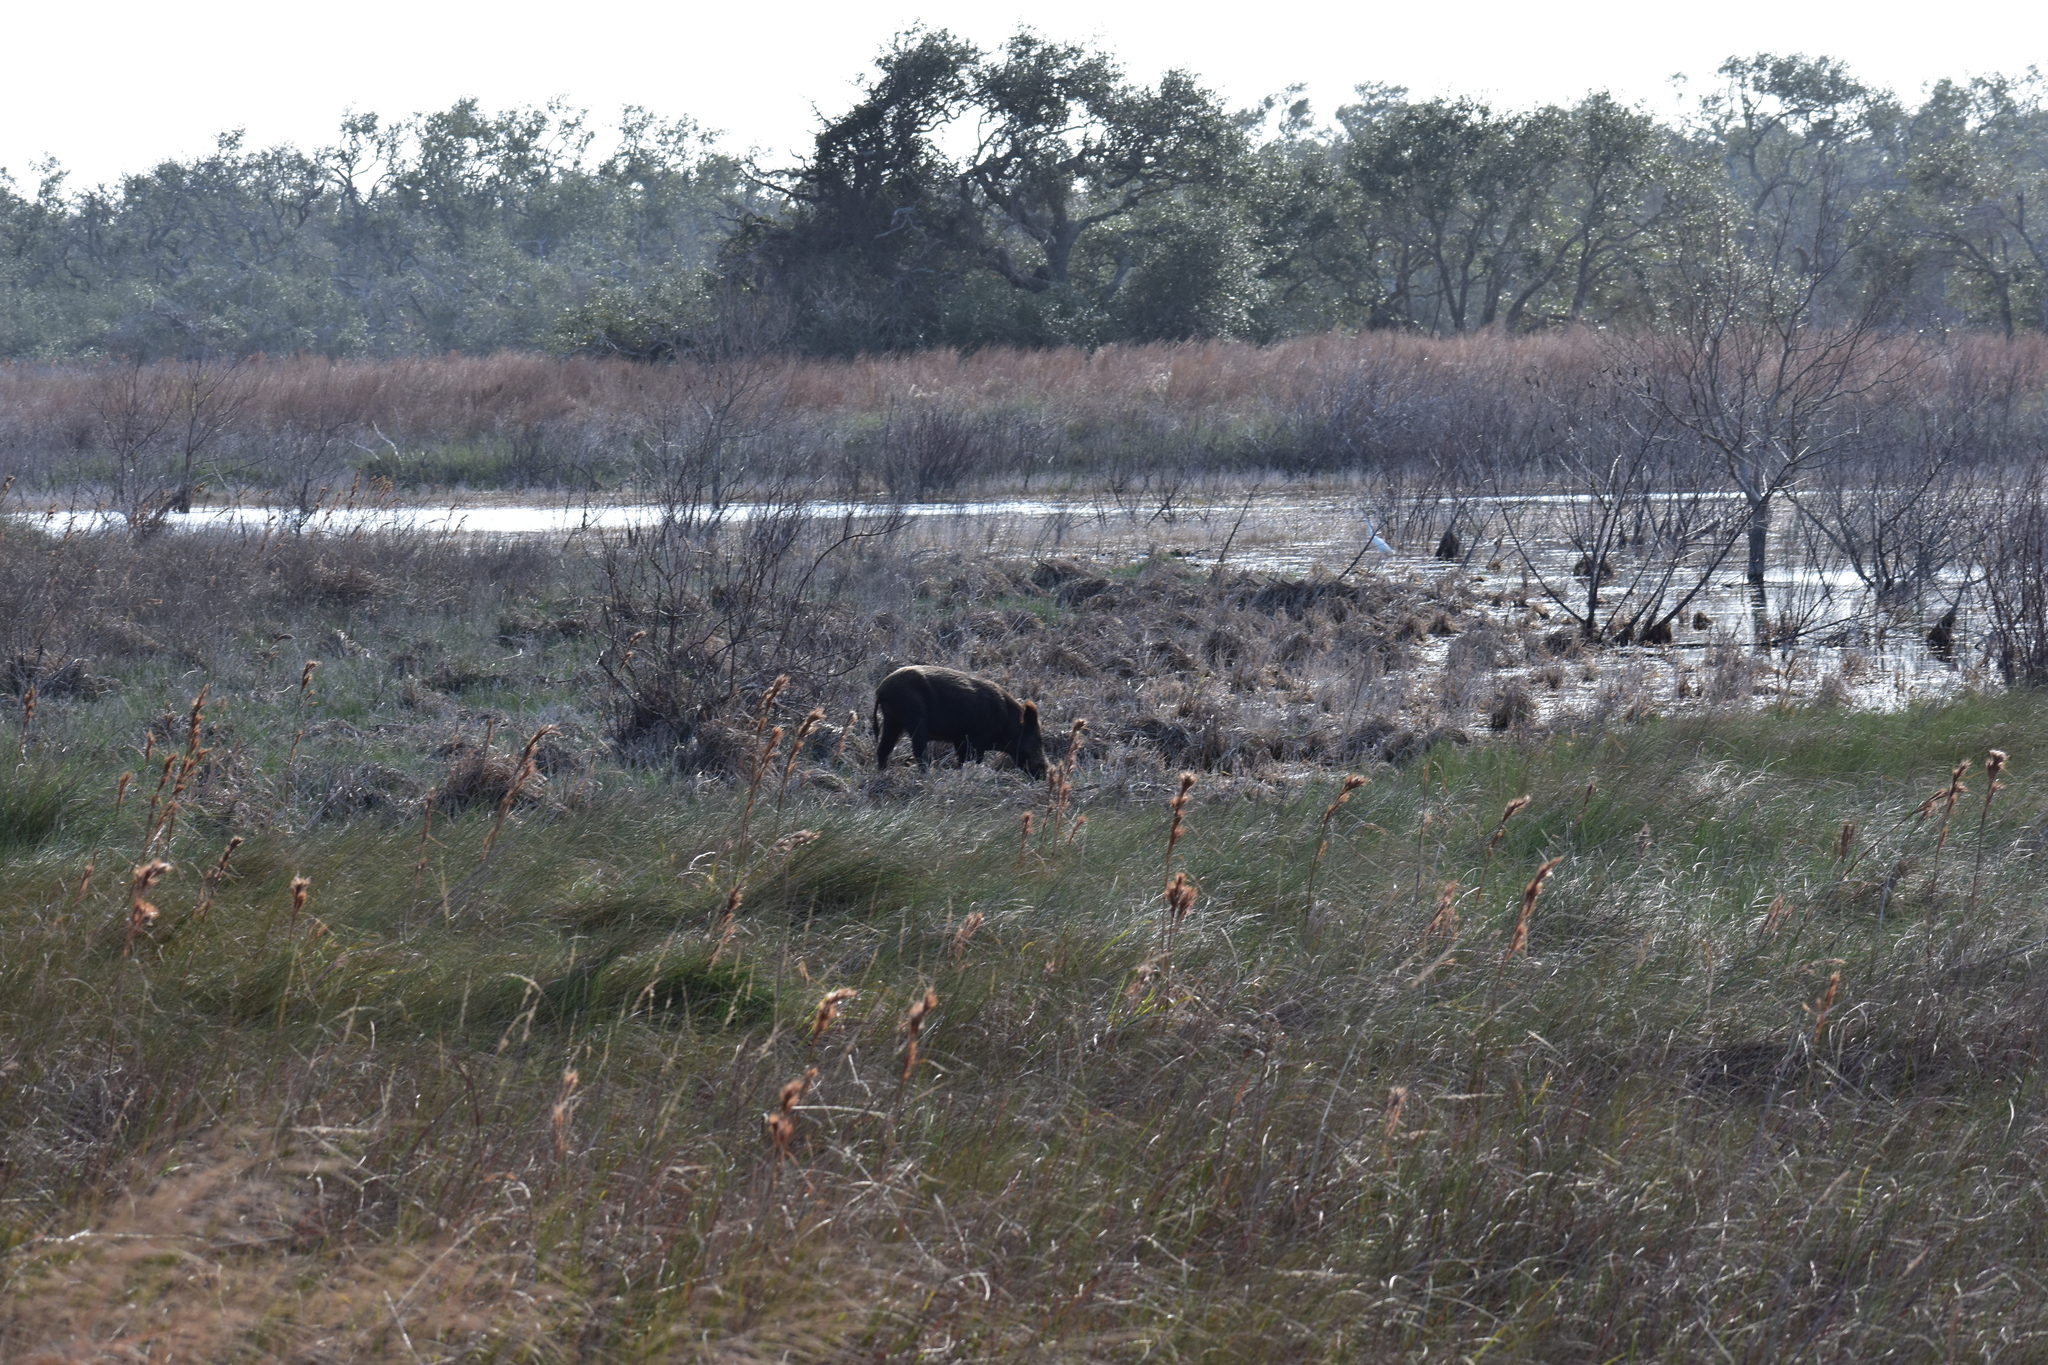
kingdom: Animalia
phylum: Chordata
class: Mammalia
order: Artiodactyla
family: Suidae
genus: Sus
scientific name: Sus scrofa
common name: Wild boar
